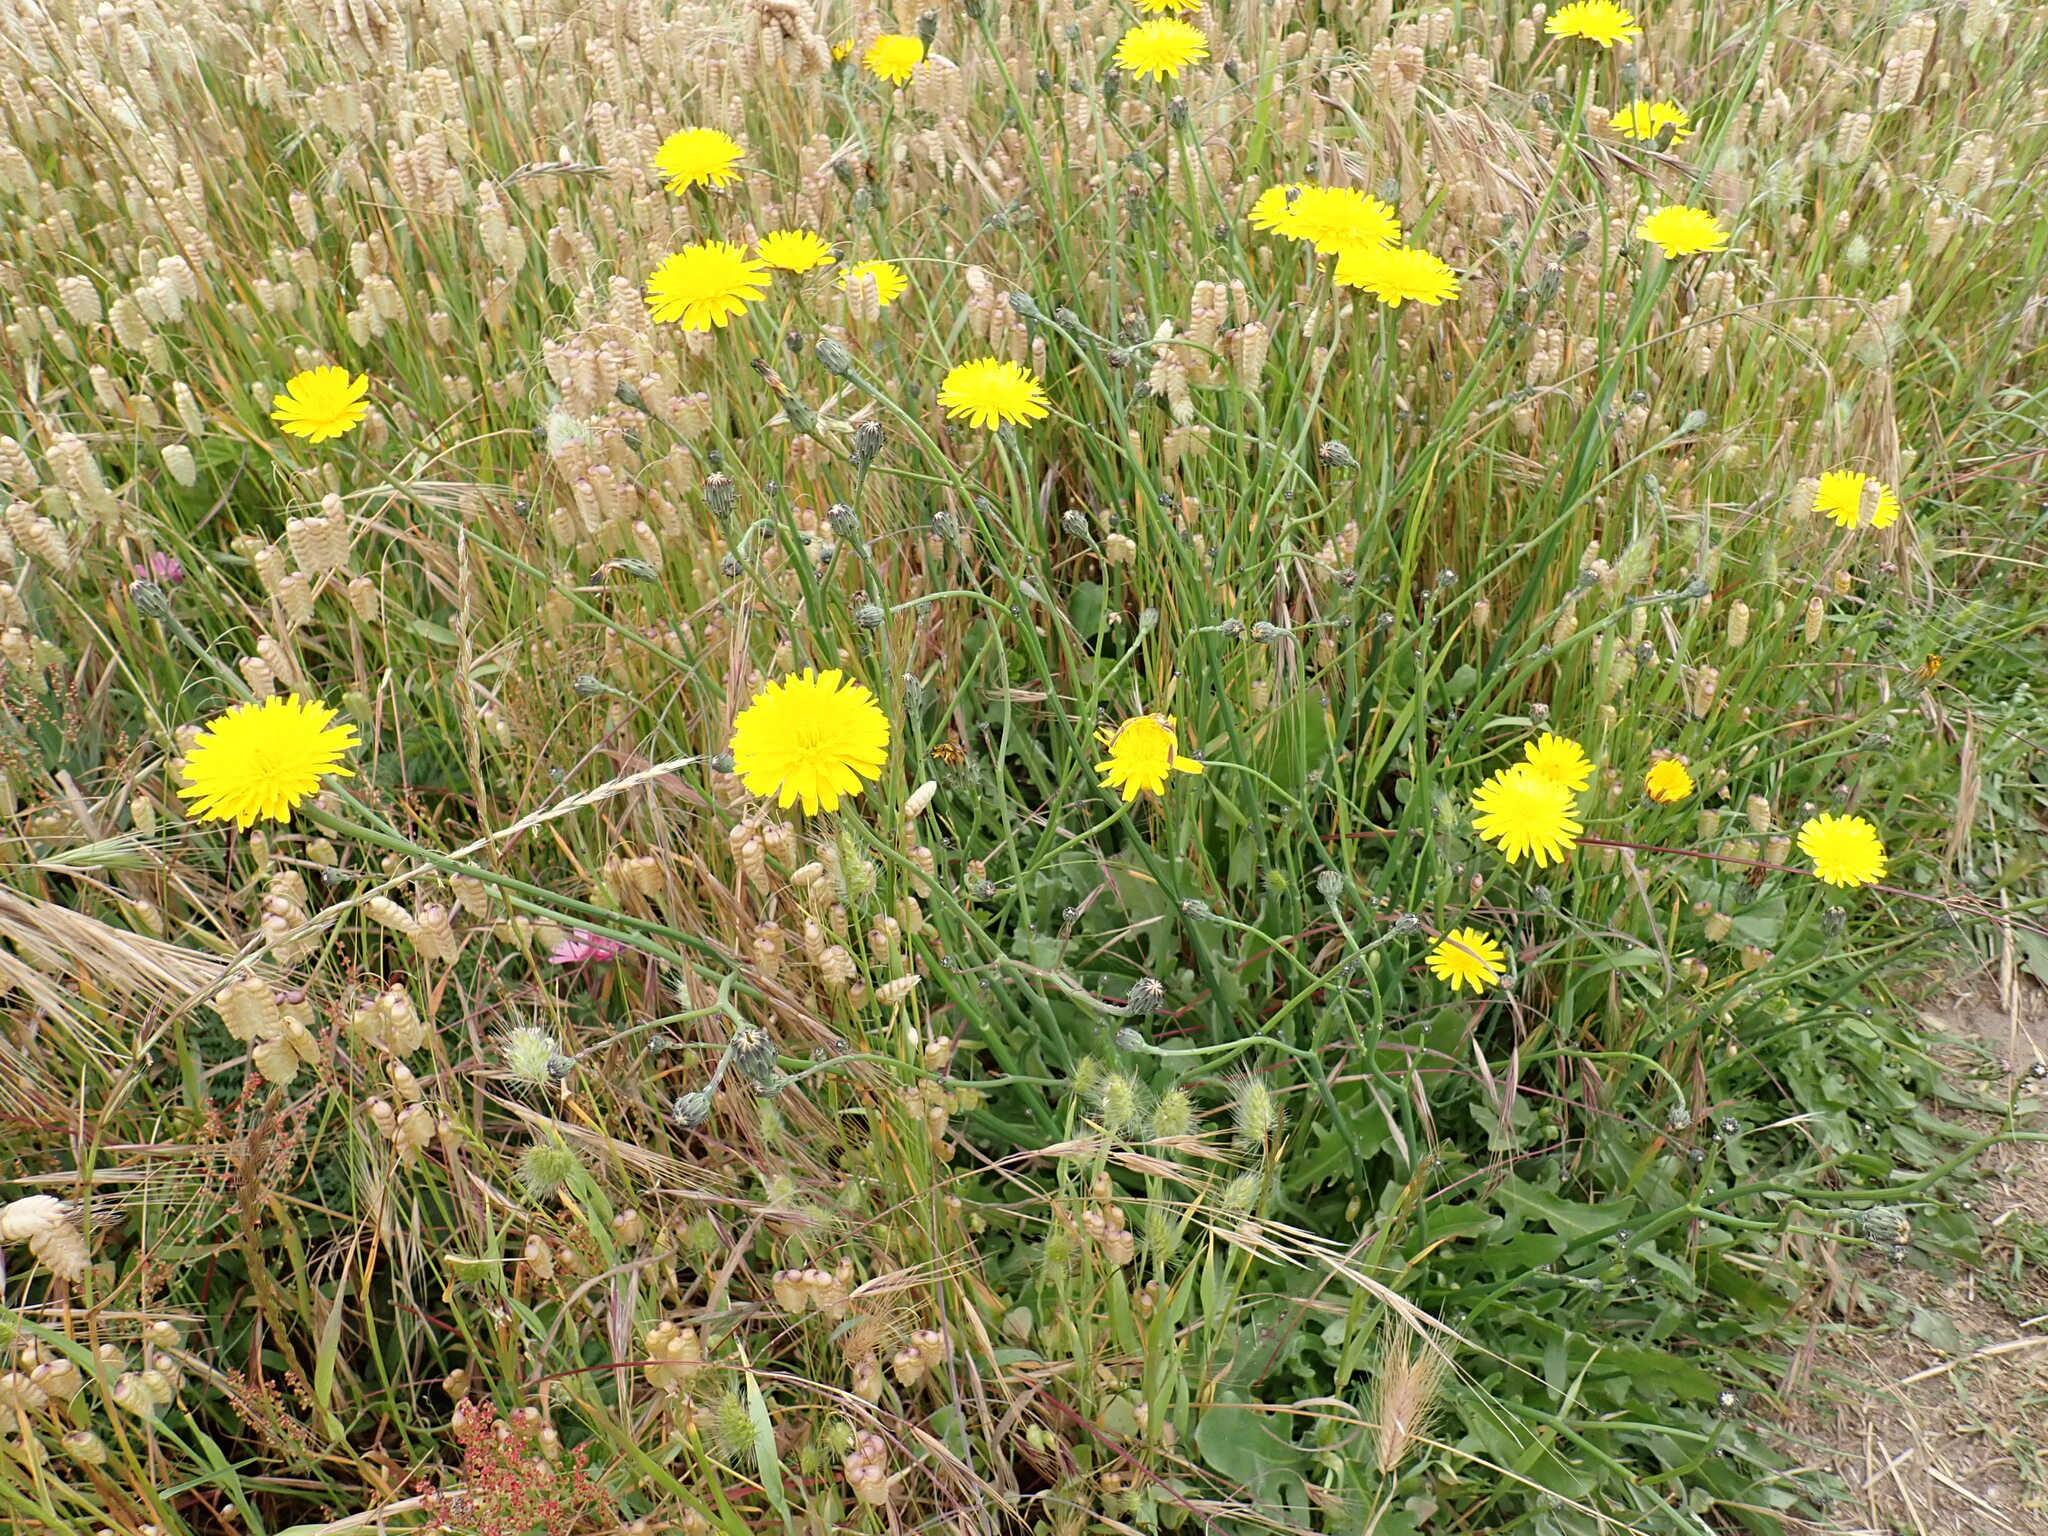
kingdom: Plantae
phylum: Tracheophyta
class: Magnoliopsida
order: Asterales
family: Asteraceae
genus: Hypochaeris
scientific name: Hypochaeris radicata
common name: Flatweed
